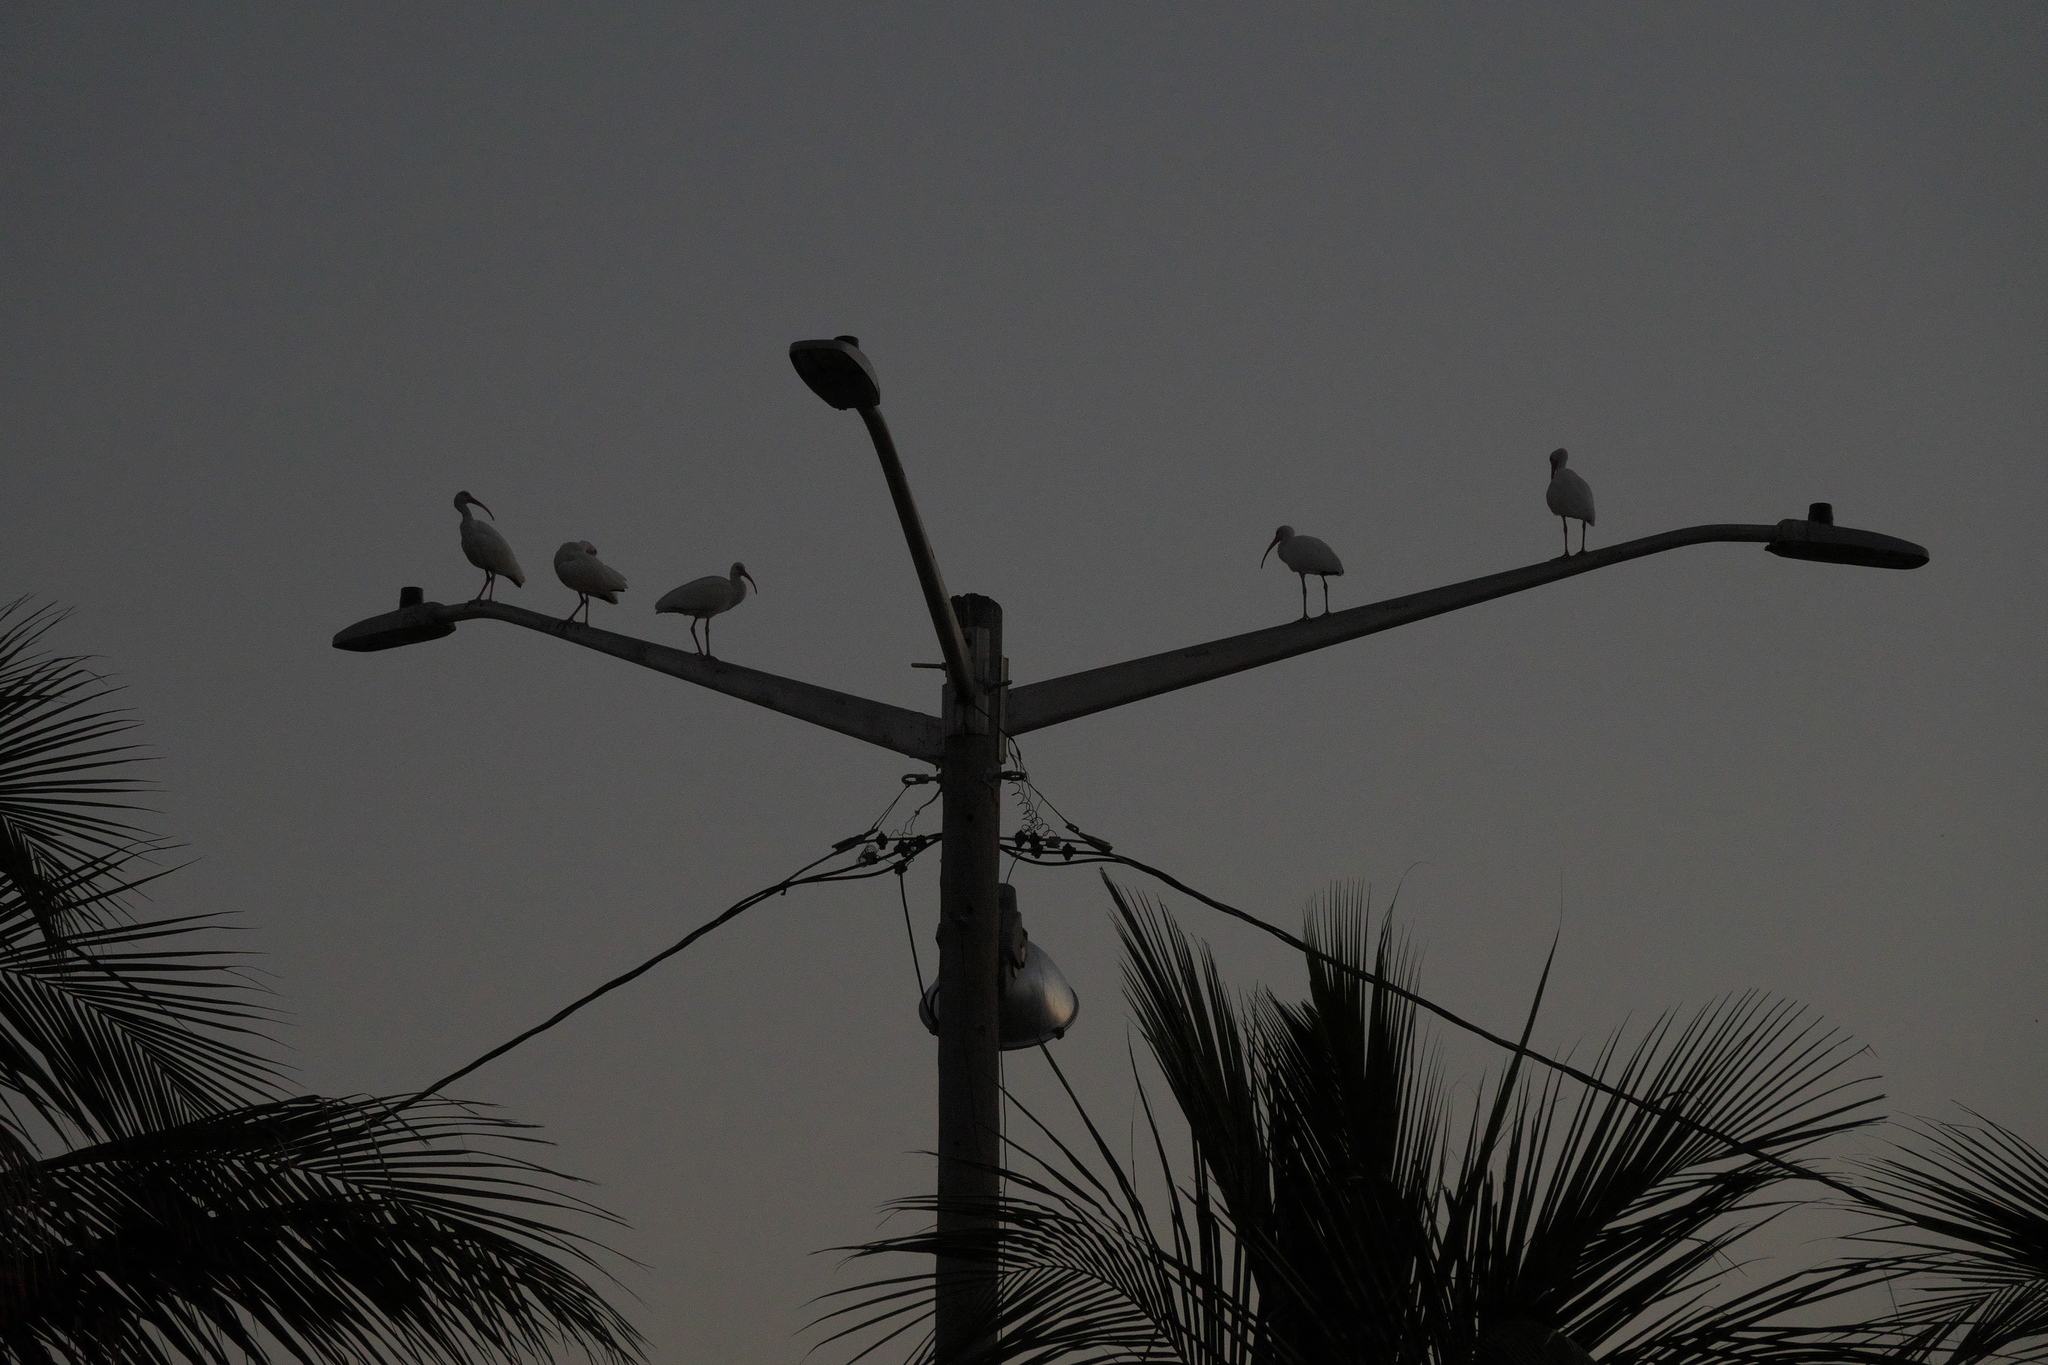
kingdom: Animalia
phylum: Chordata
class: Aves
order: Pelecaniformes
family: Threskiornithidae
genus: Eudocimus
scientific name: Eudocimus albus
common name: White ibis
